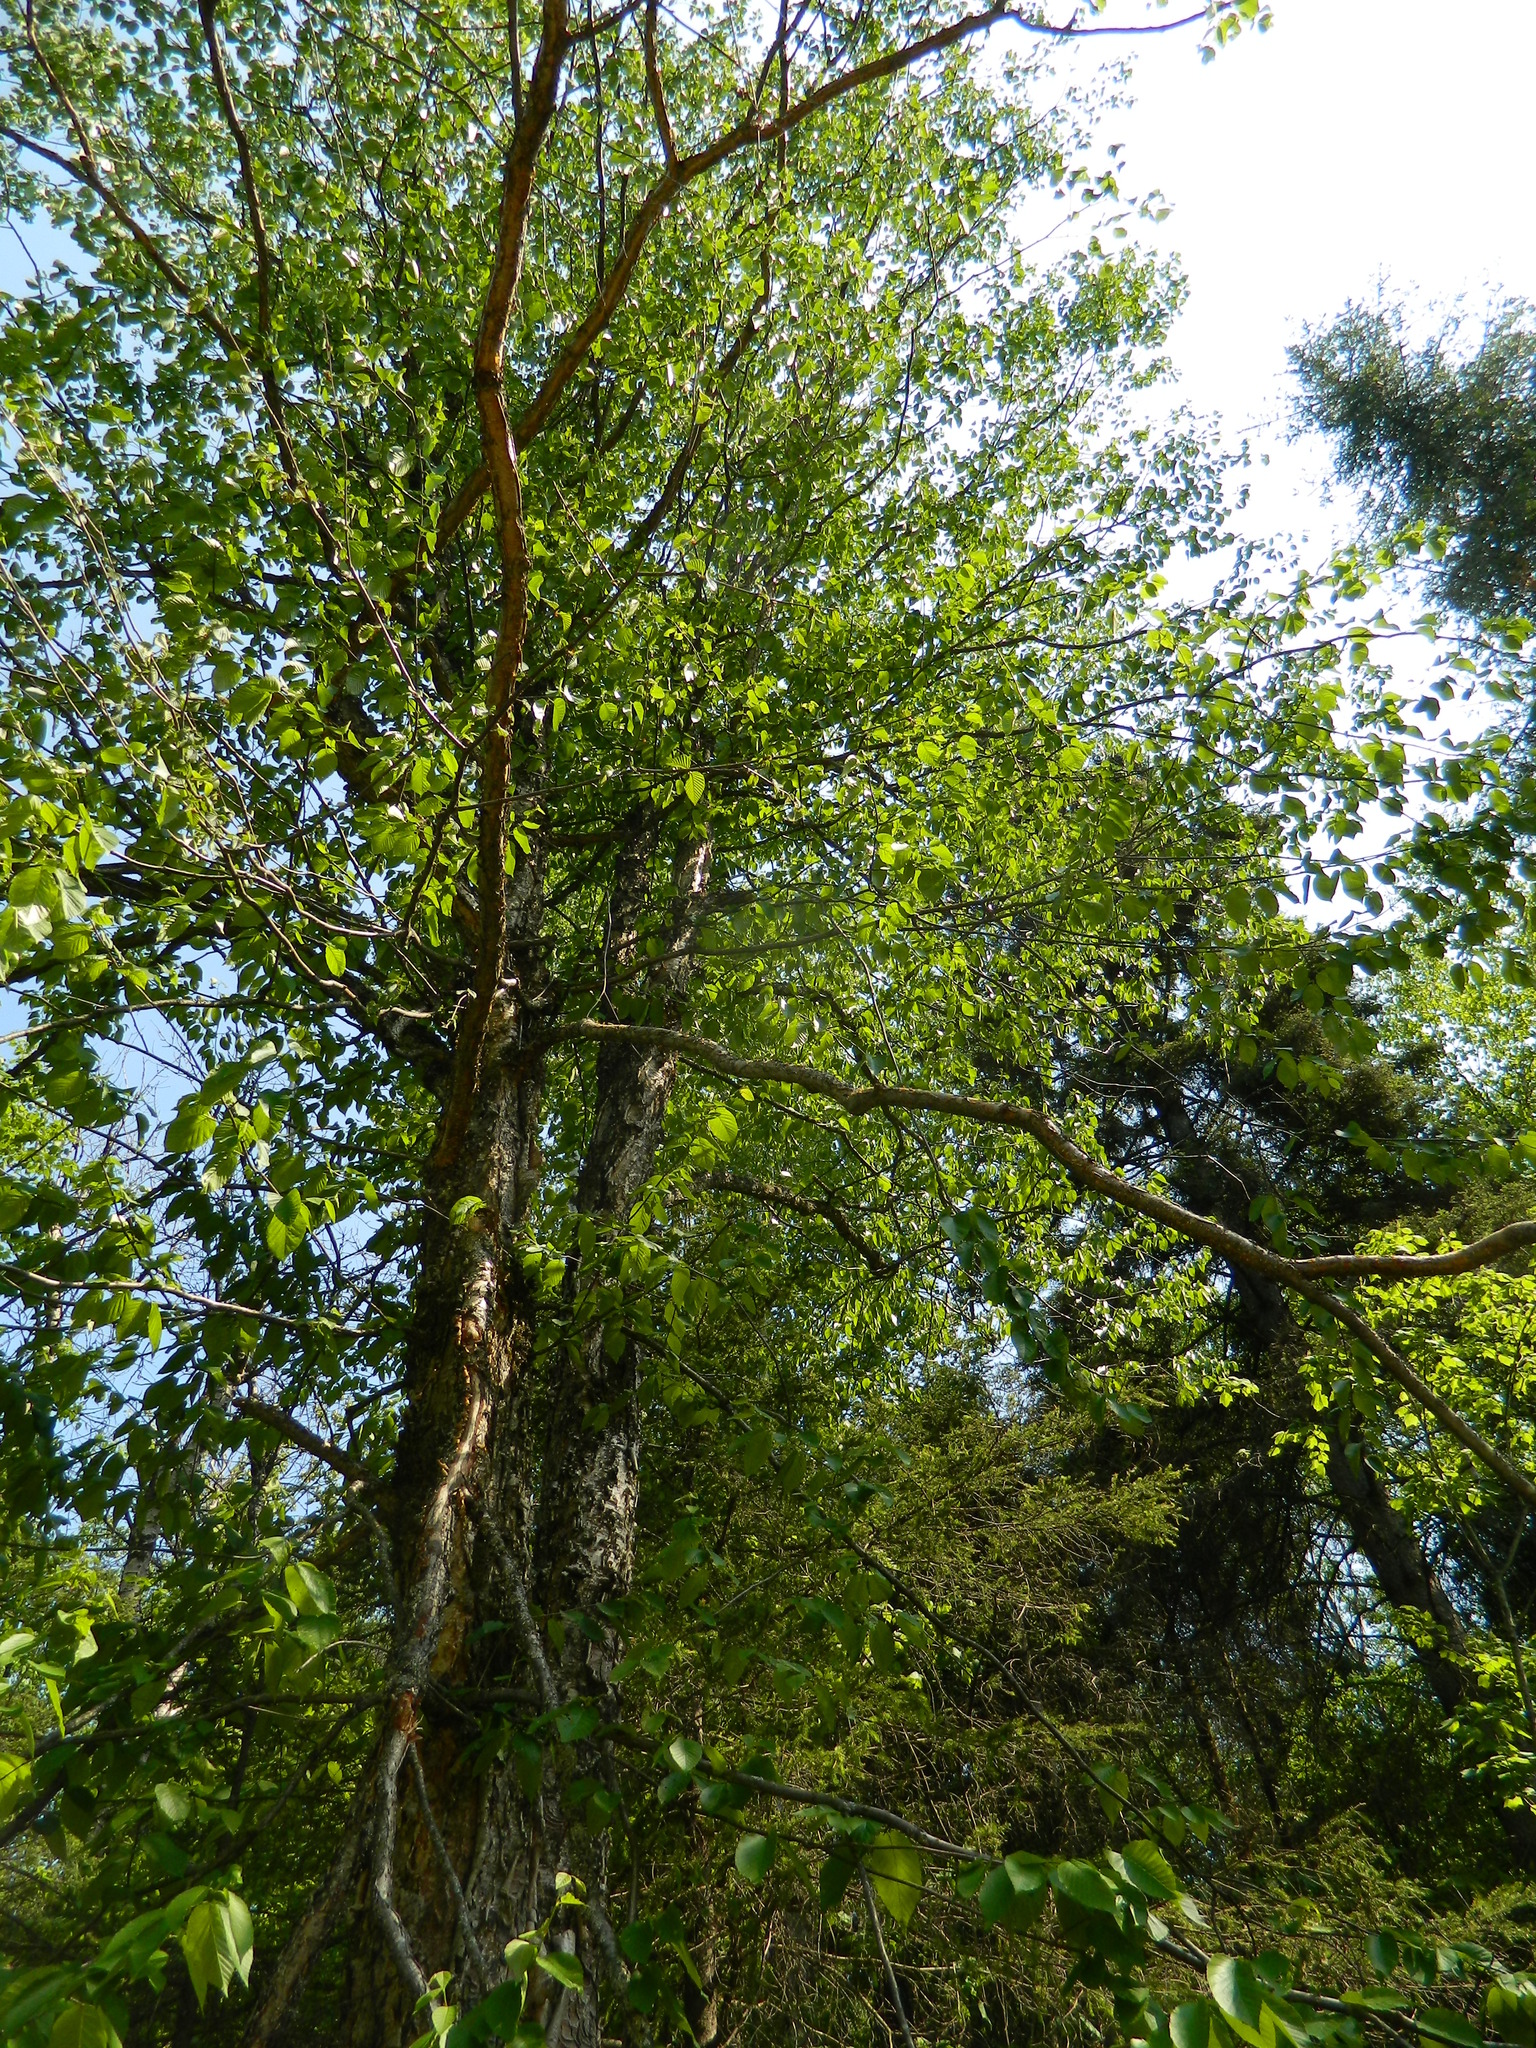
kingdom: Plantae
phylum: Tracheophyta
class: Magnoliopsida
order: Fagales
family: Betulaceae
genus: Betula
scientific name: Betula alleghaniensis
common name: Yellow birch
